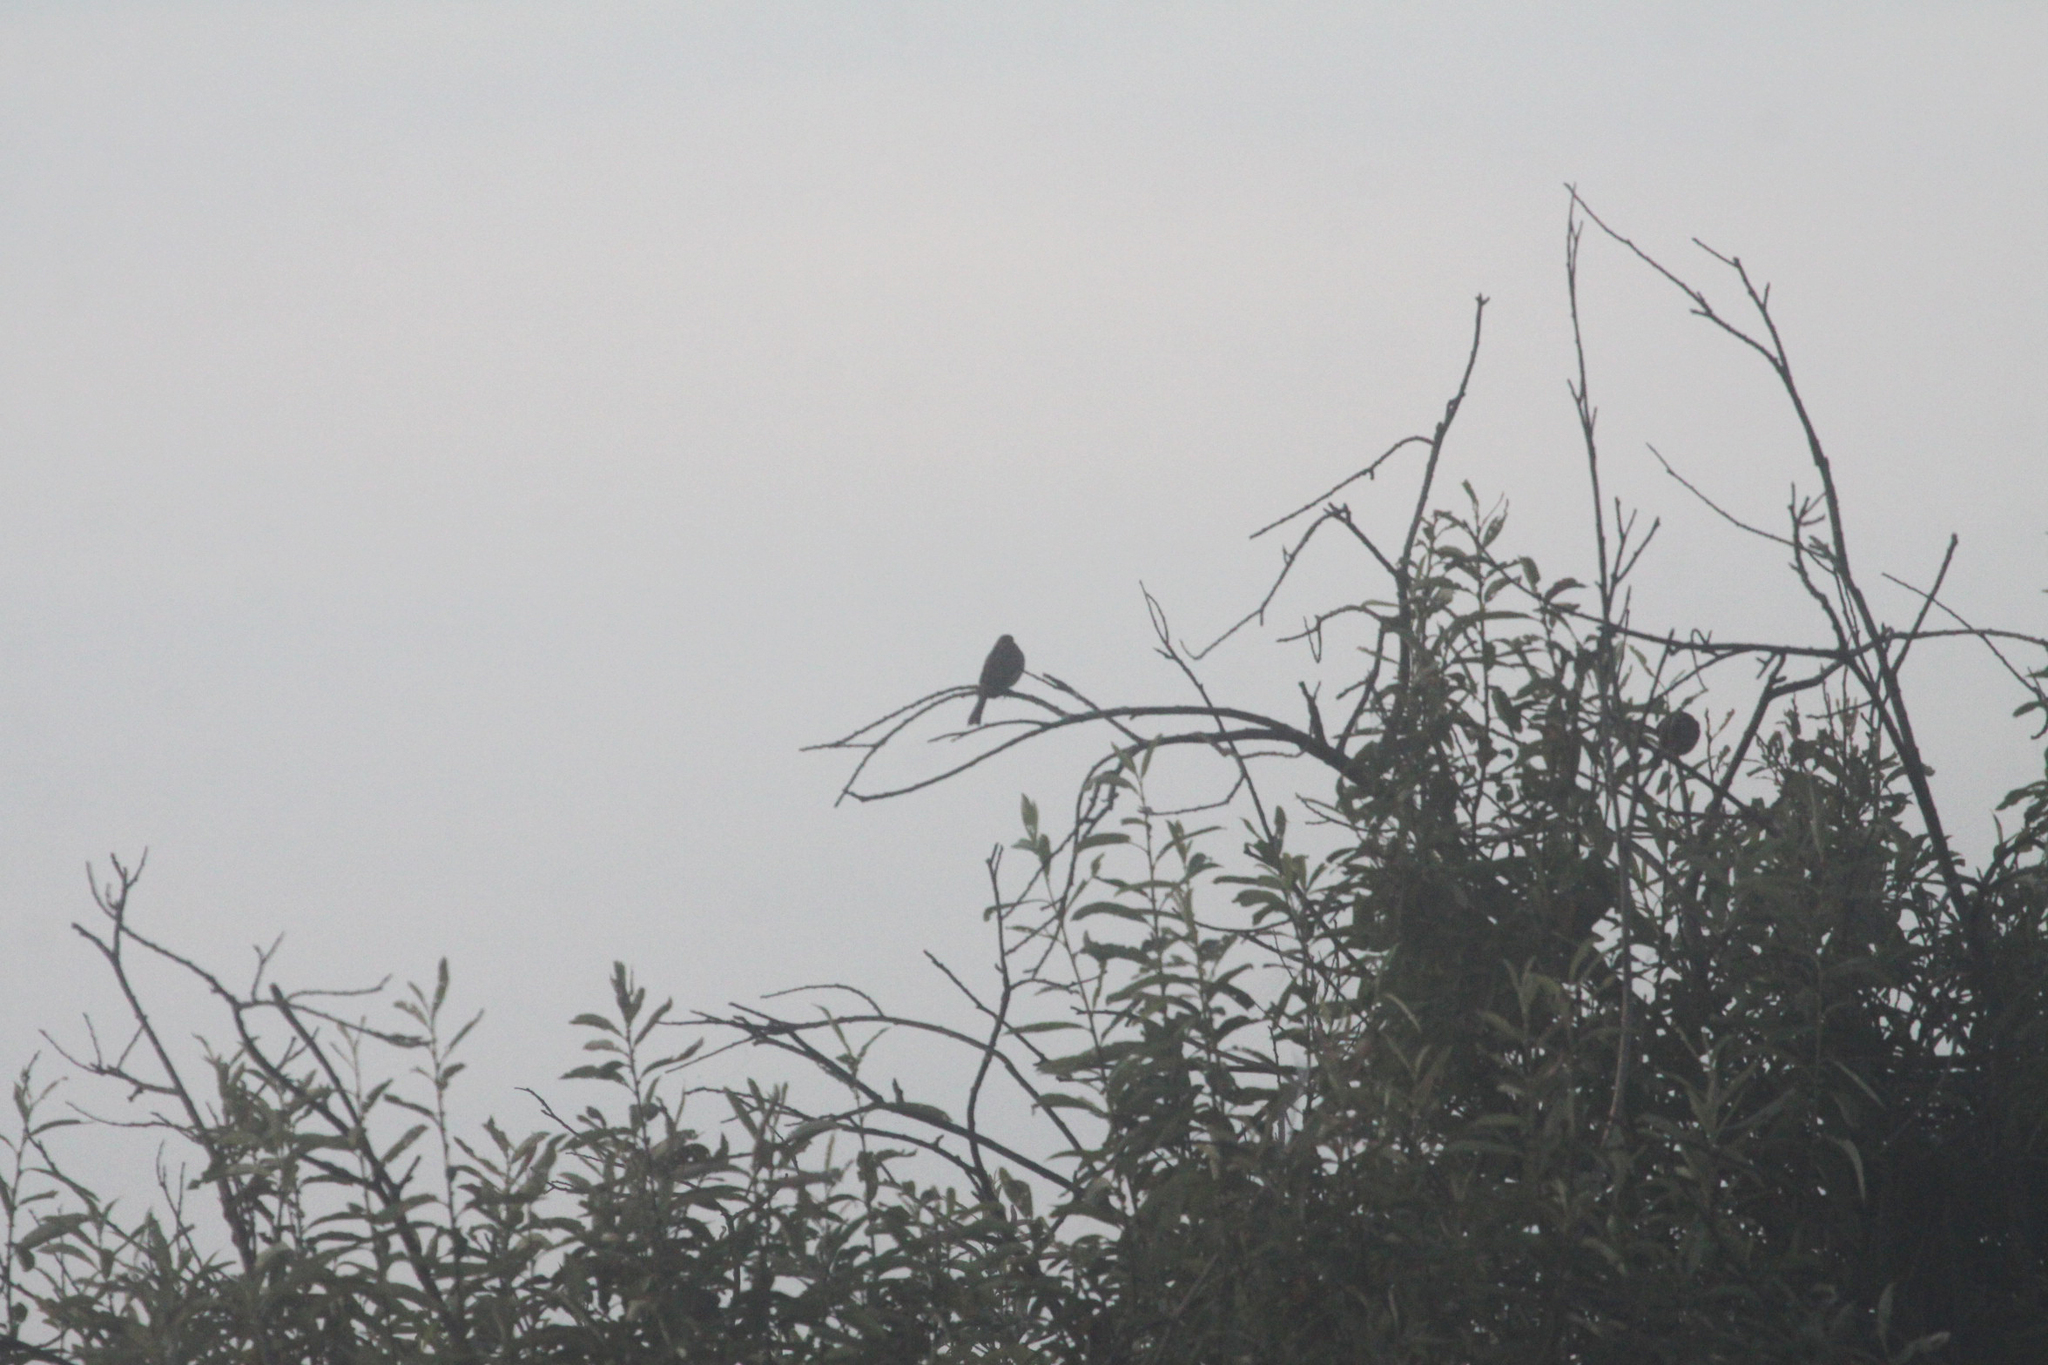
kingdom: Animalia
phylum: Chordata
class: Aves
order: Passeriformes
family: Emberizidae
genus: Emberiza
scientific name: Emberiza citrinella
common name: Yellowhammer
